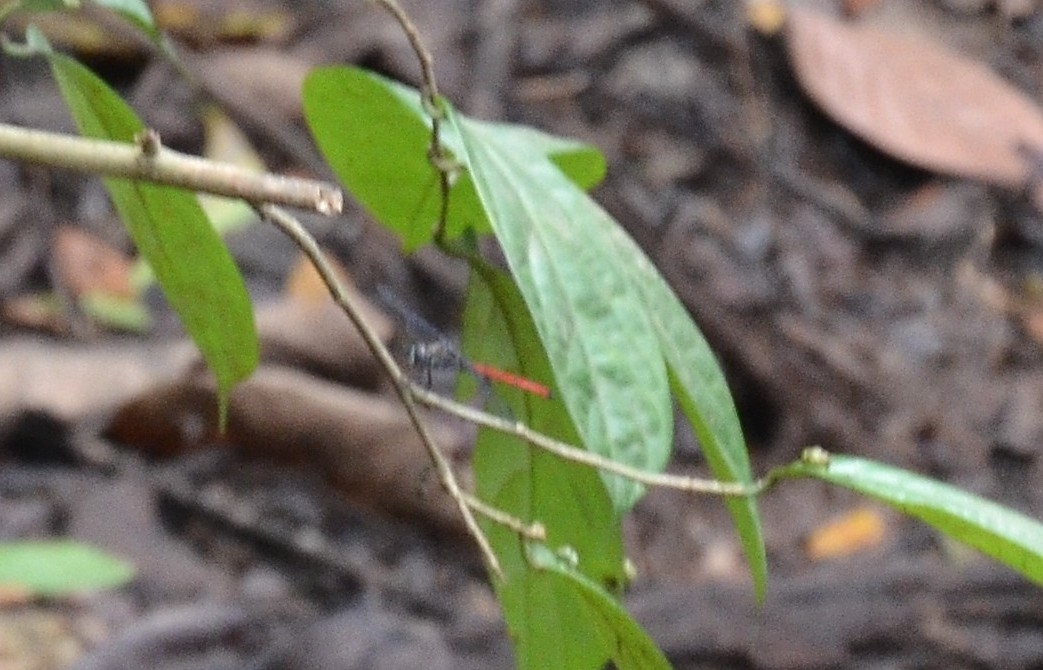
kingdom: Animalia
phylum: Arthropoda
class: Insecta
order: Odonata
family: Libellulidae
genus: Lathrecista
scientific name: Lathrecista asiatica
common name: Scarlet grenadier
